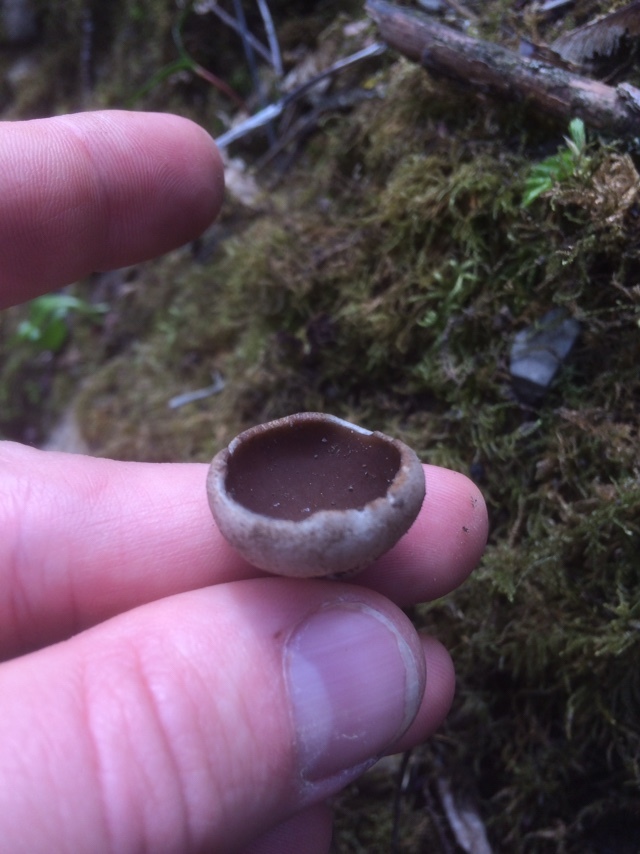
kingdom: Fungi
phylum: Ascomycota
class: Pezizomycetes
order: Pezizales
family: Morchellaceae
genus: Disciotis
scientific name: Disciotis venosa
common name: Bleach cup
